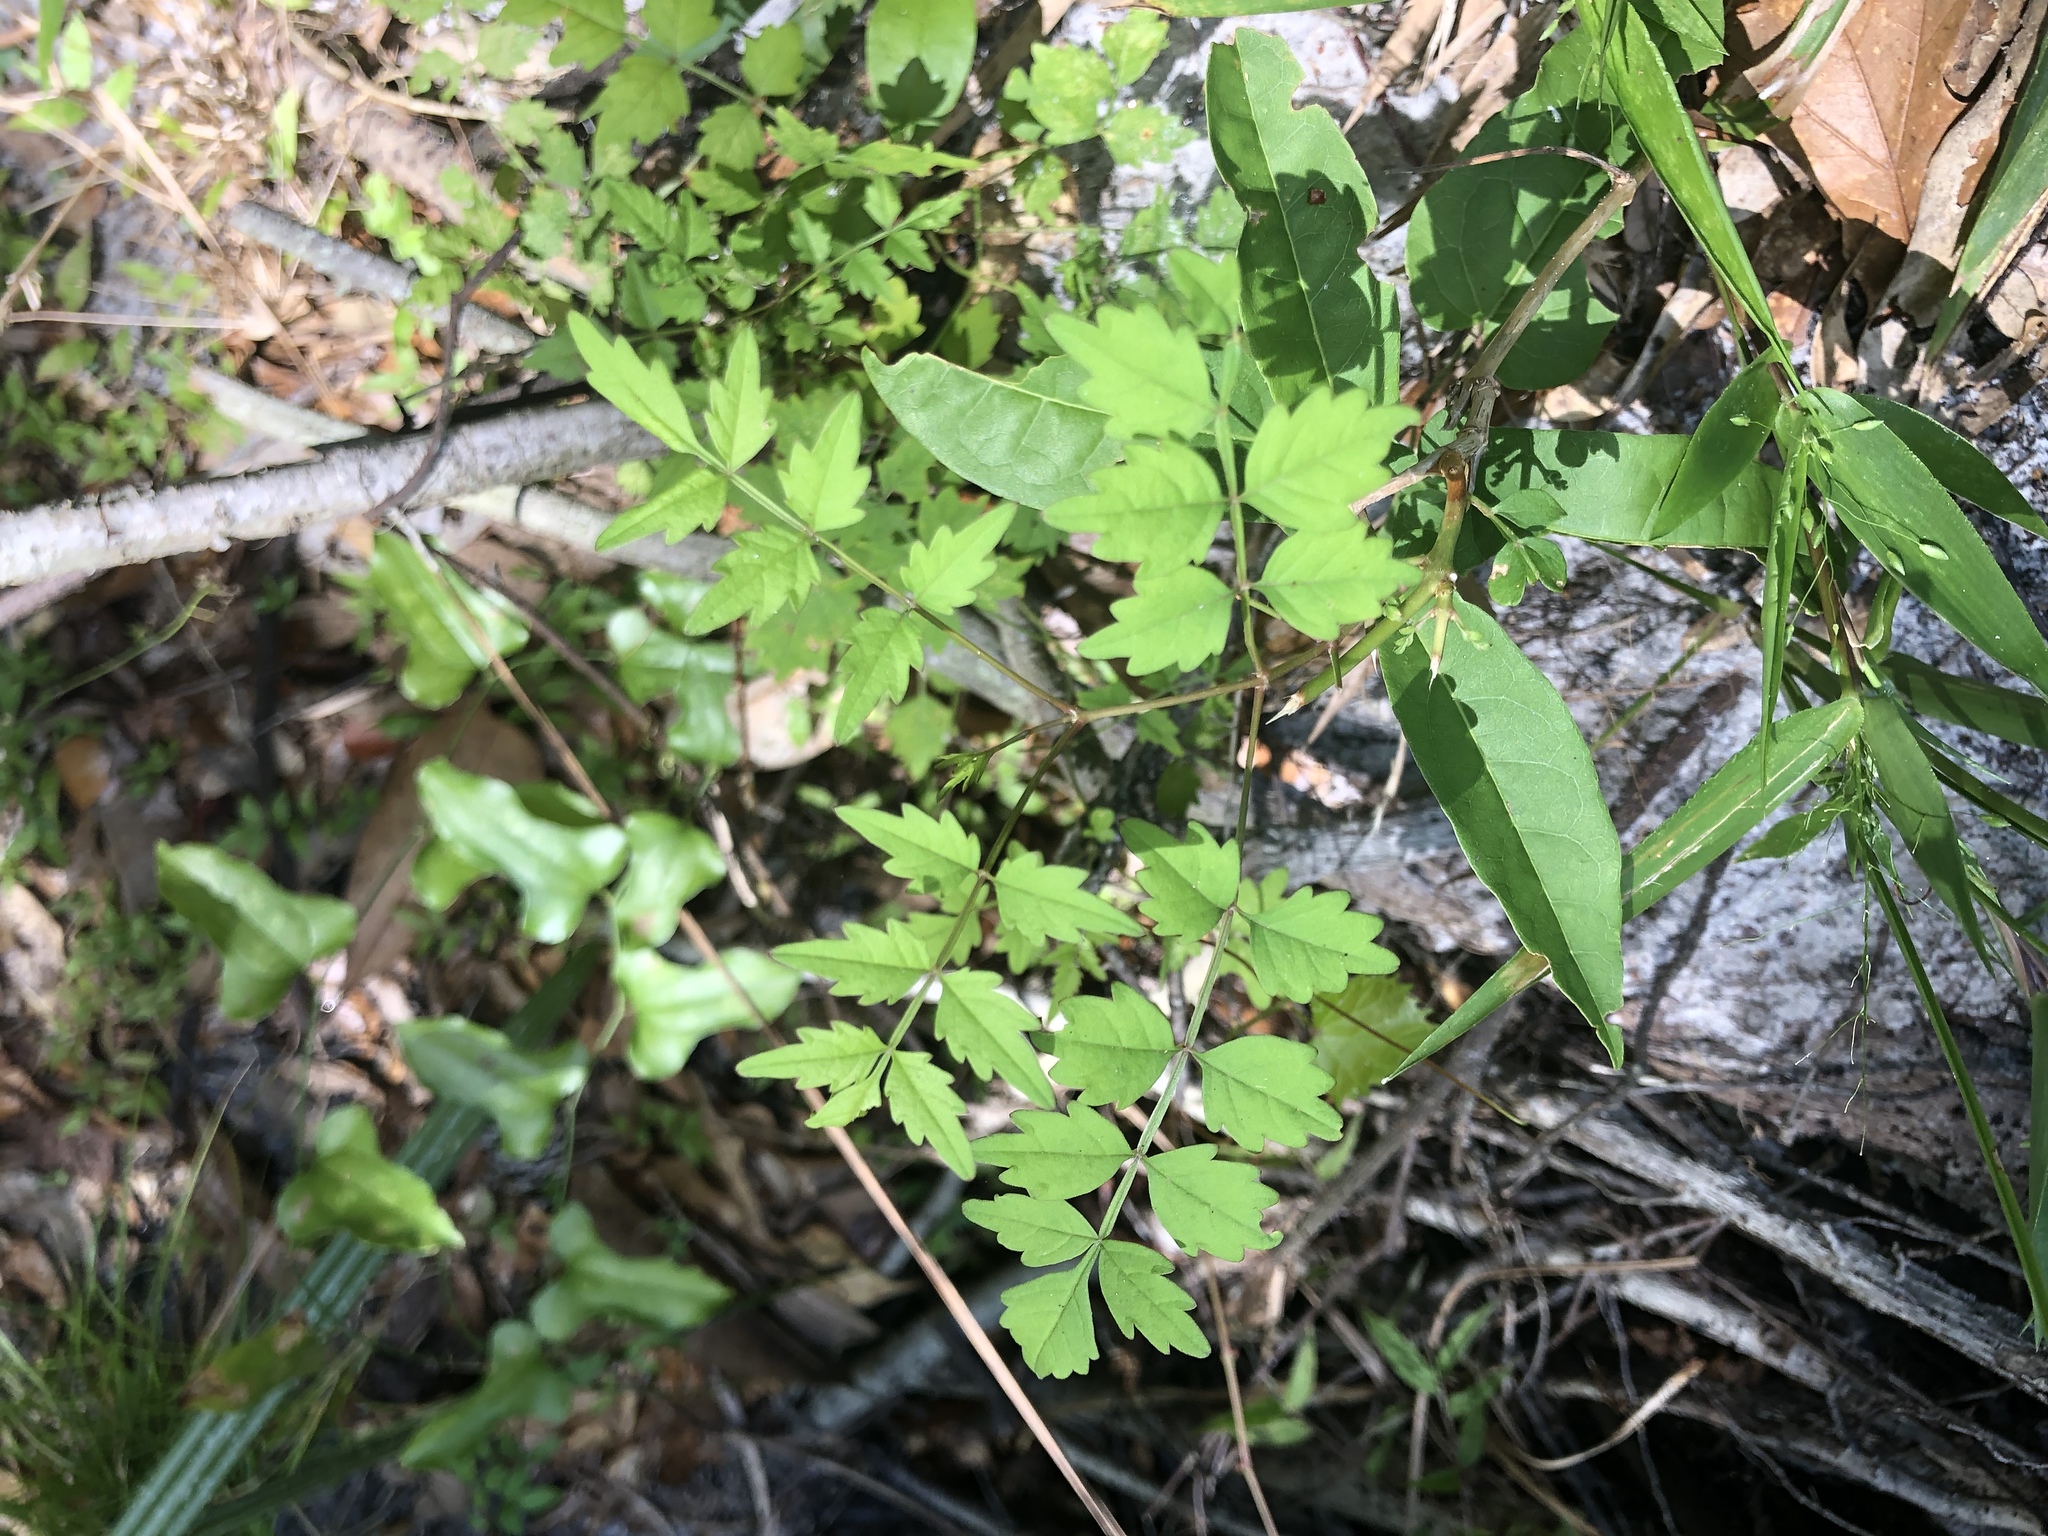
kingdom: Plantae
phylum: Tracheophyta
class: Magnoliopsida
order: Lamiales
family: Bignoniaceae
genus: Campsis
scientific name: Campsis radicans
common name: Trumpet-creeper
